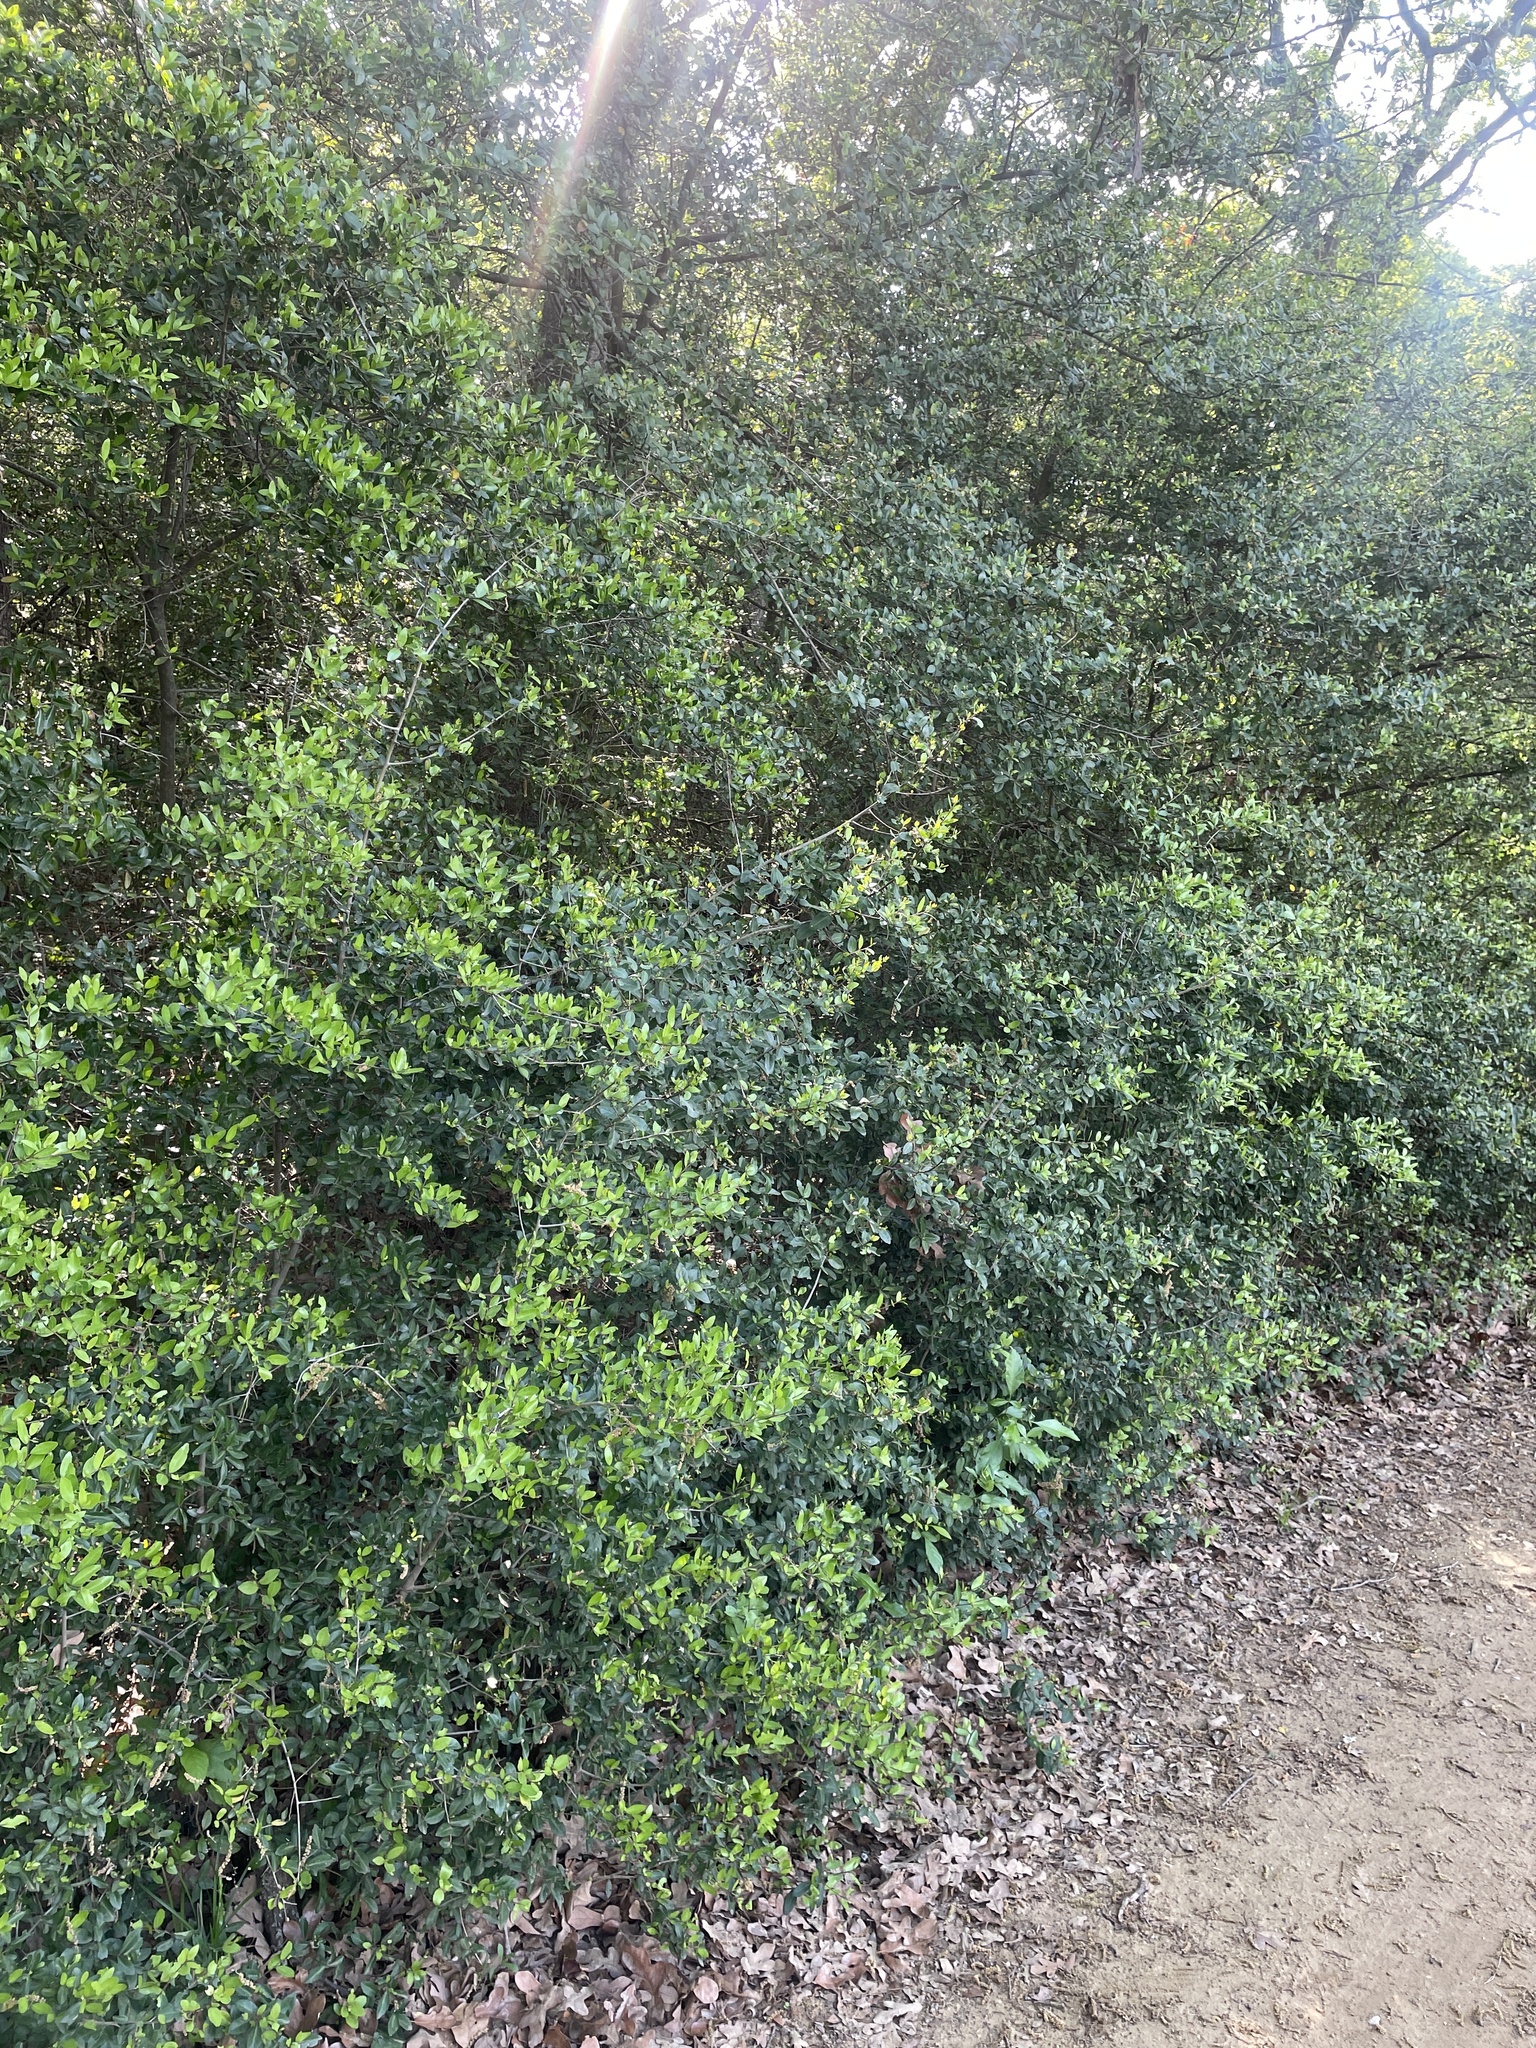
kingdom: Plantae
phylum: Tracheophyta
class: Magnoliopsida
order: Aquifoliales
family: Aquifoliaceae
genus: Ilex
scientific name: Ilex vomitoria
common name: Yaupon holly
